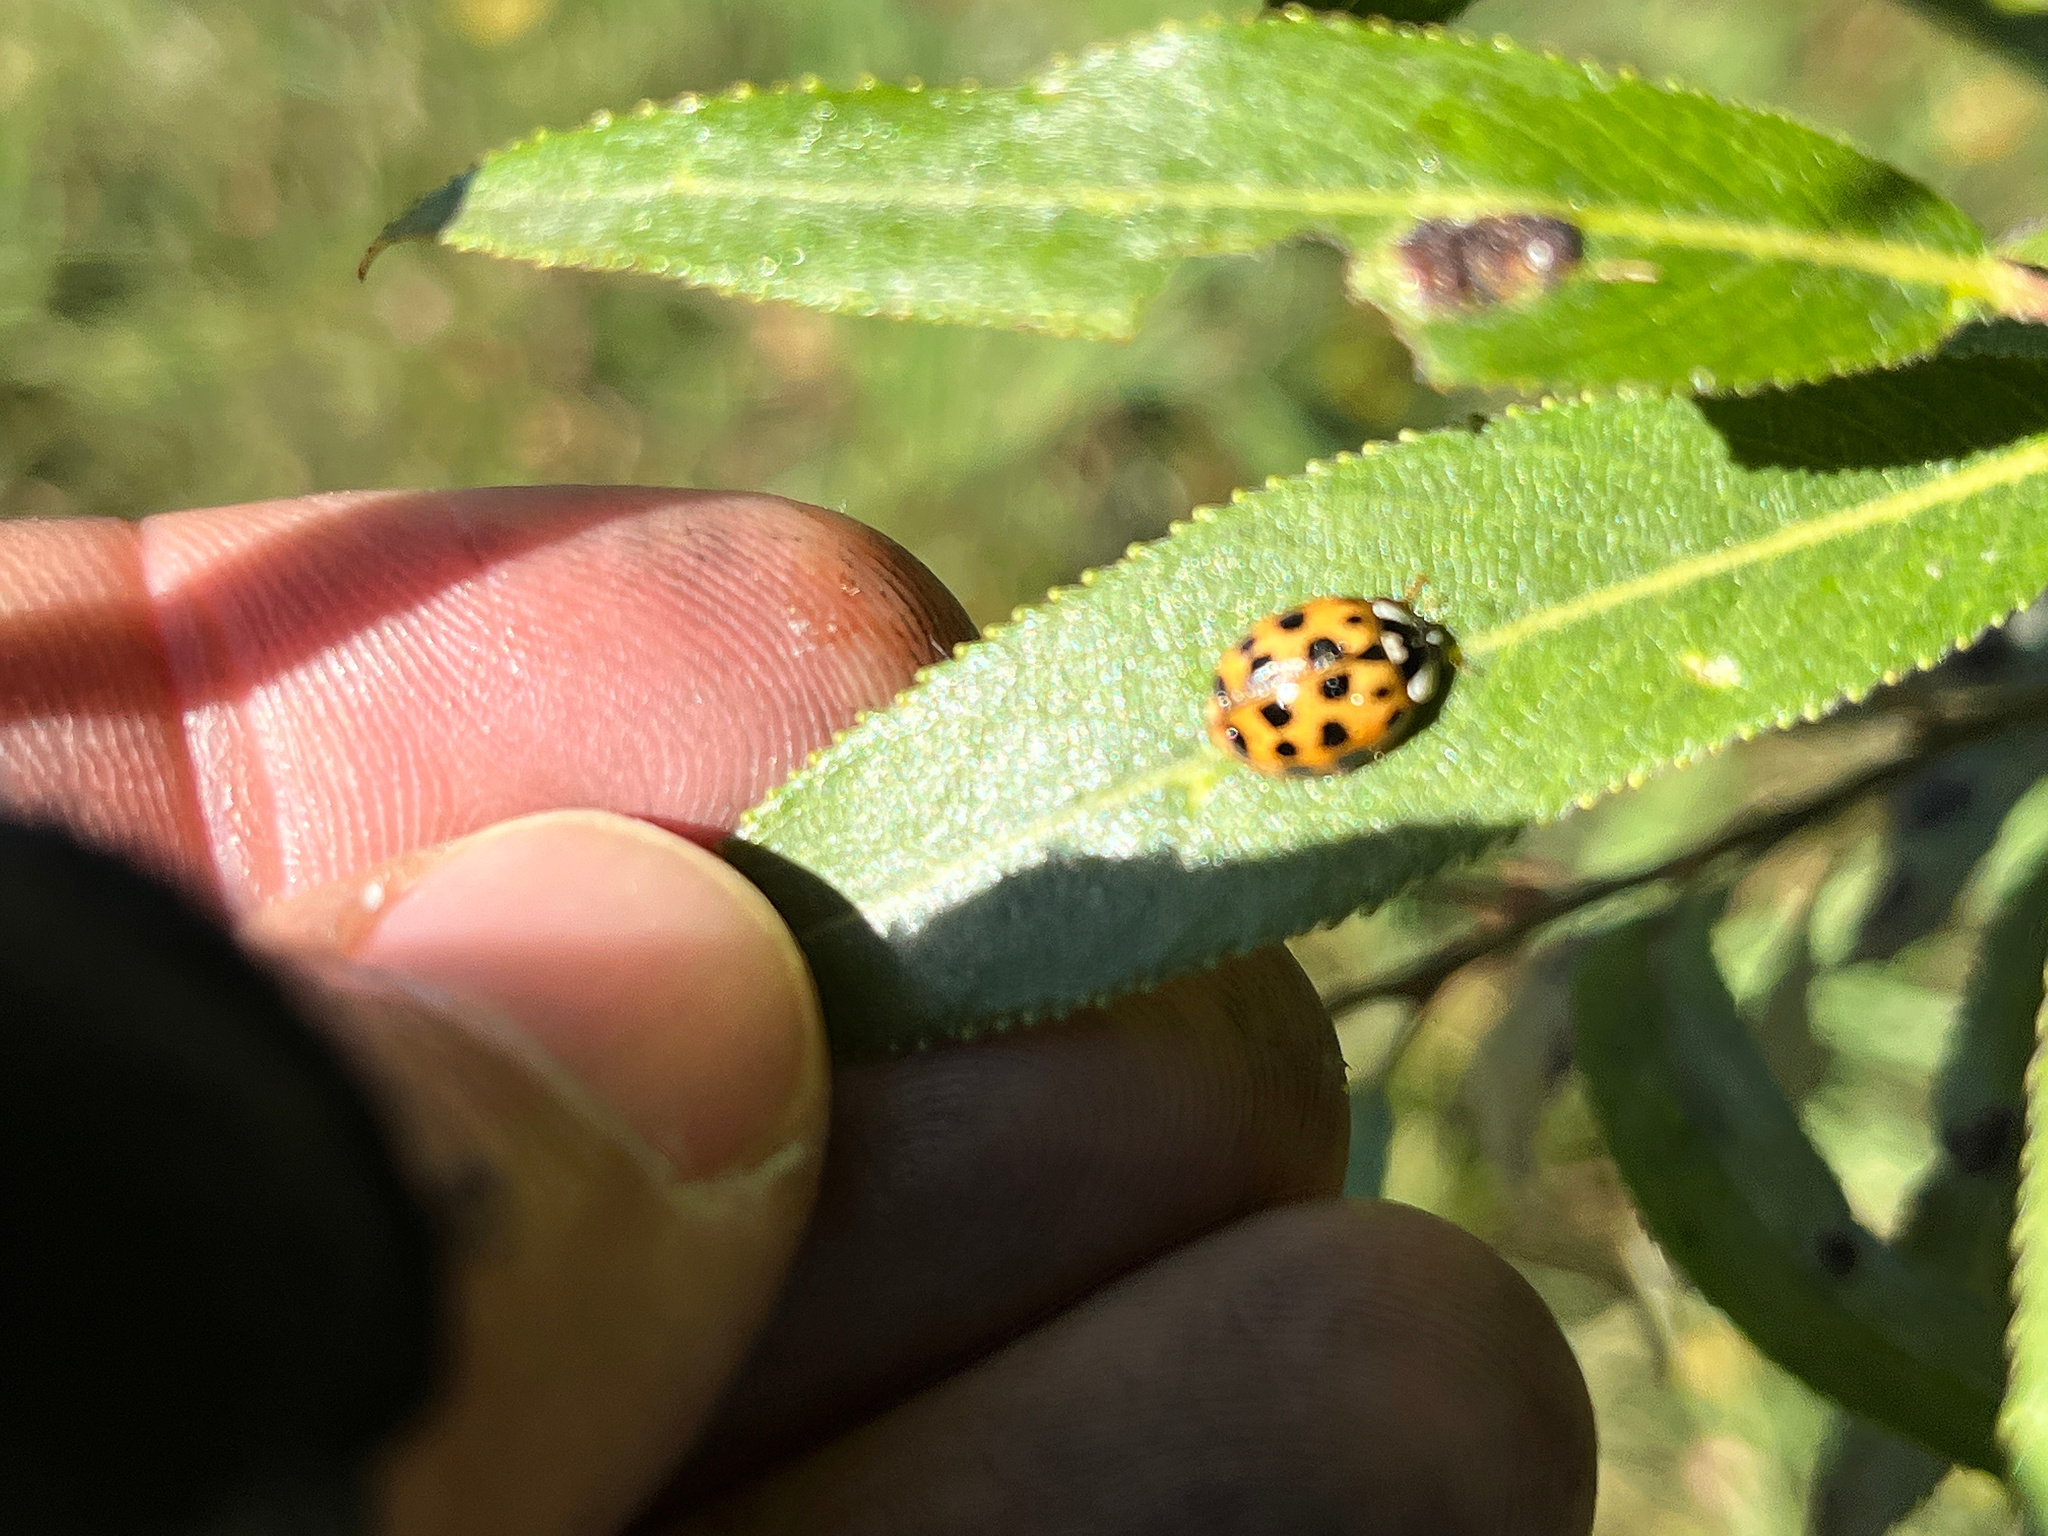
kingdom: Animalia
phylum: Arthropoda
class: Insecta
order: Coleoptera
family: Coccinellidae
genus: Harmonia
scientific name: Harmonia axyridis
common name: Harlequin ladybird
